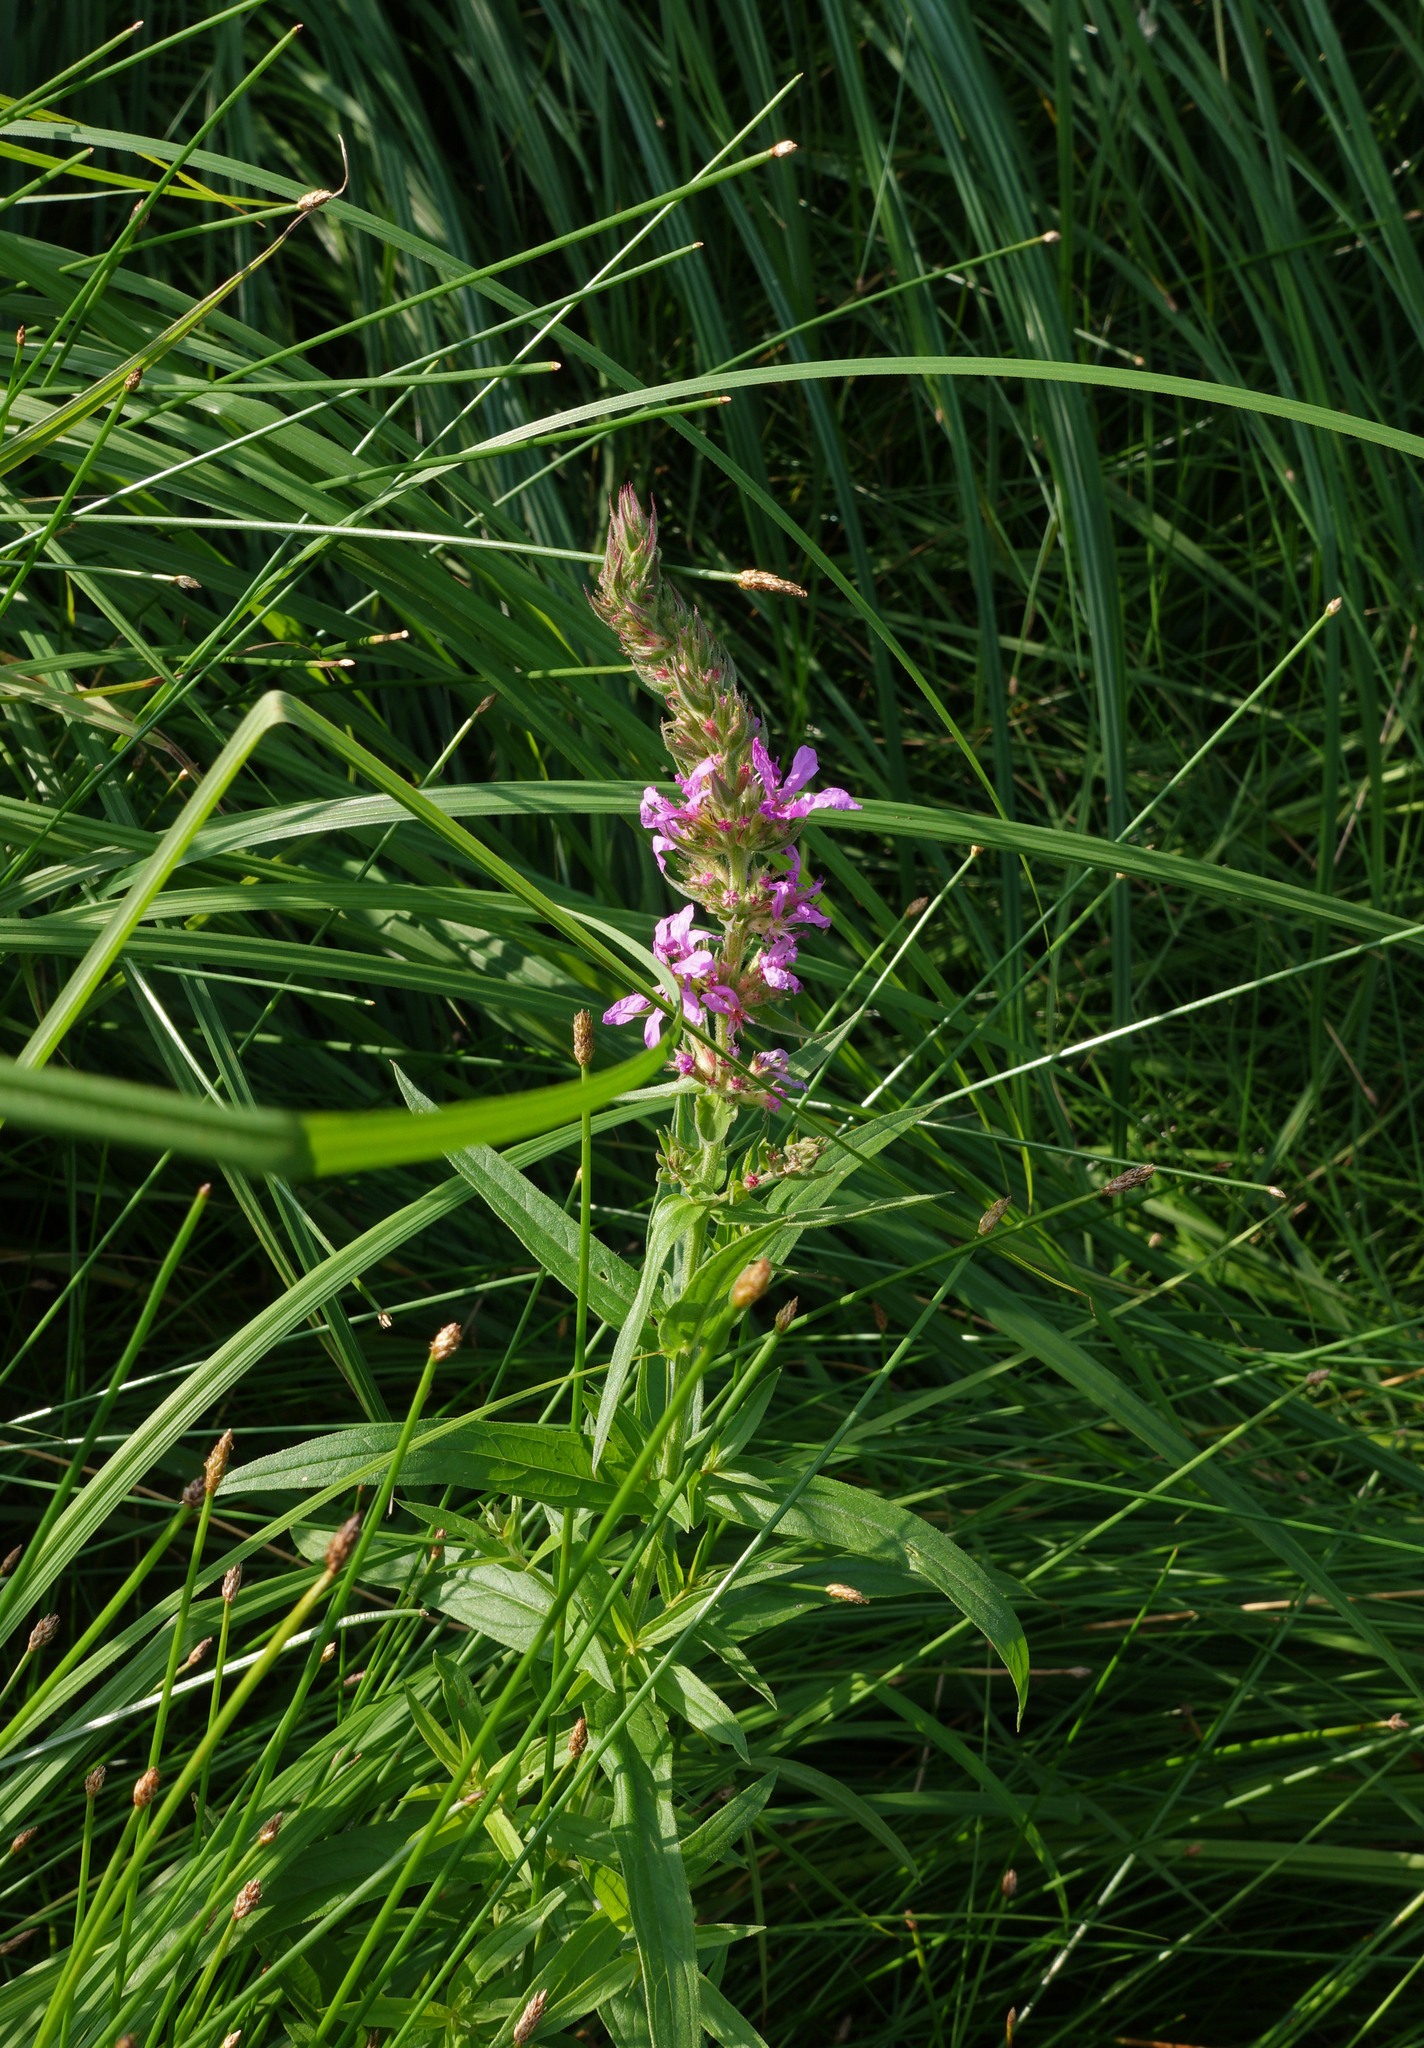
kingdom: Plantae
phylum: Tracheophyta
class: Magnoliopsida
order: Myrtales
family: Lythraceae
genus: Lythrum
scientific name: Lythrum salicaria
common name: Purple loosestrife
